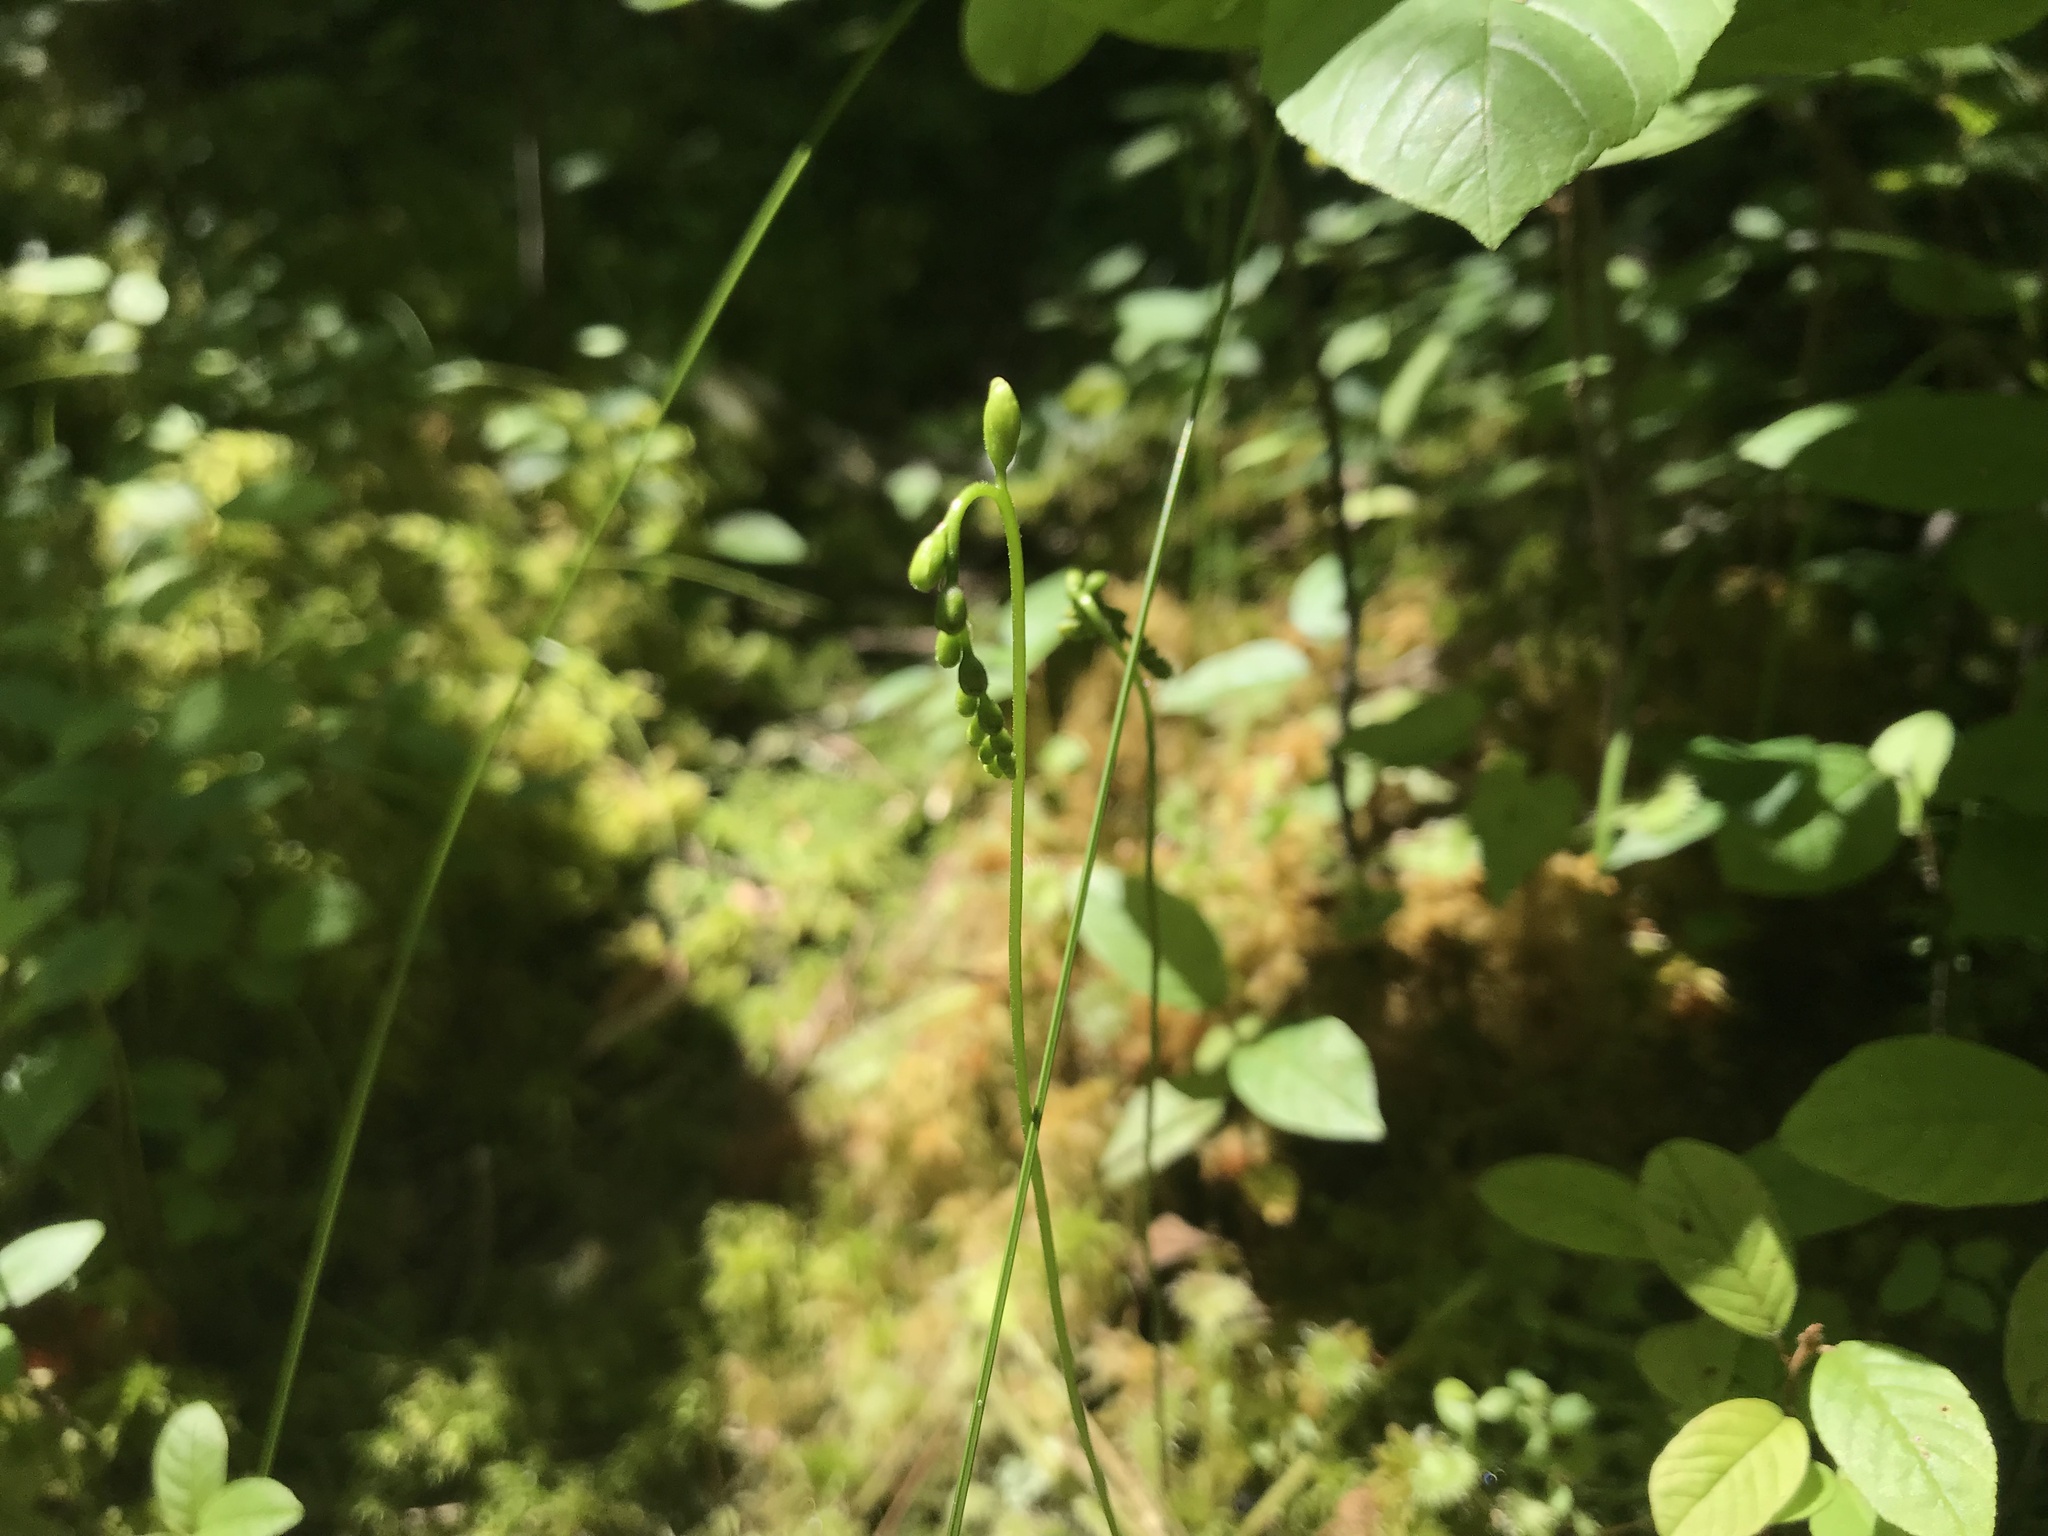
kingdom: Plantae
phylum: Tracheophyta
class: Magnoliopsida
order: Caryophyllales
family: Droseraceae
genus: Drosera
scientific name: Drosera rotundifolia
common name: Round-leaved sundew
